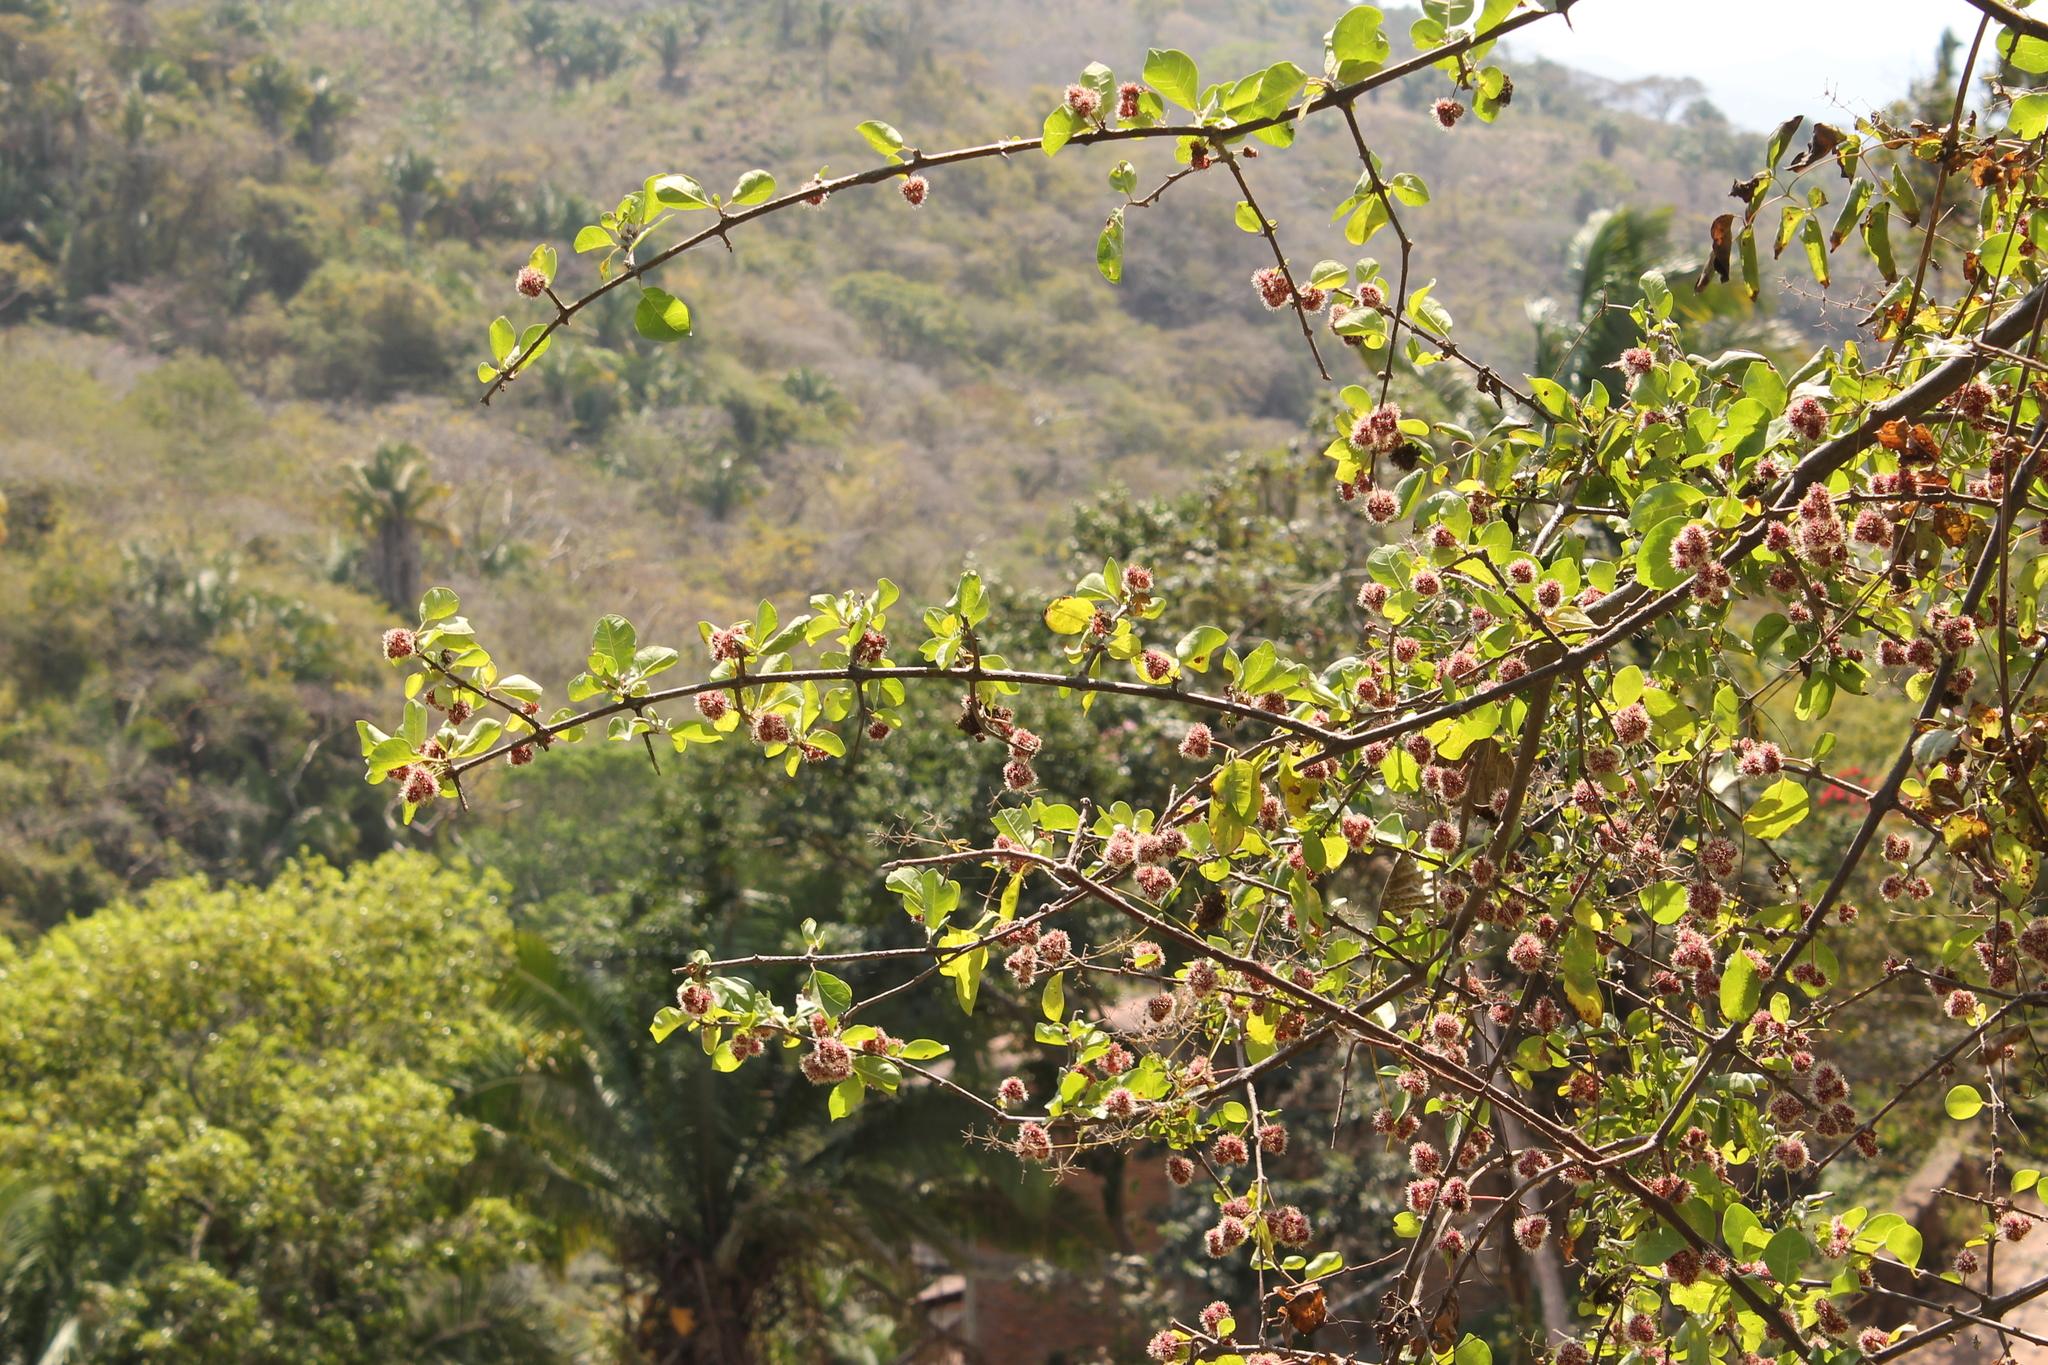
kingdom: Plantae
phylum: Tracheophyta
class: Magnoliopsida
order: Caryophyllales
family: Nyctaginaceae
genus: Pisonia
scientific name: Pisonia capitata
